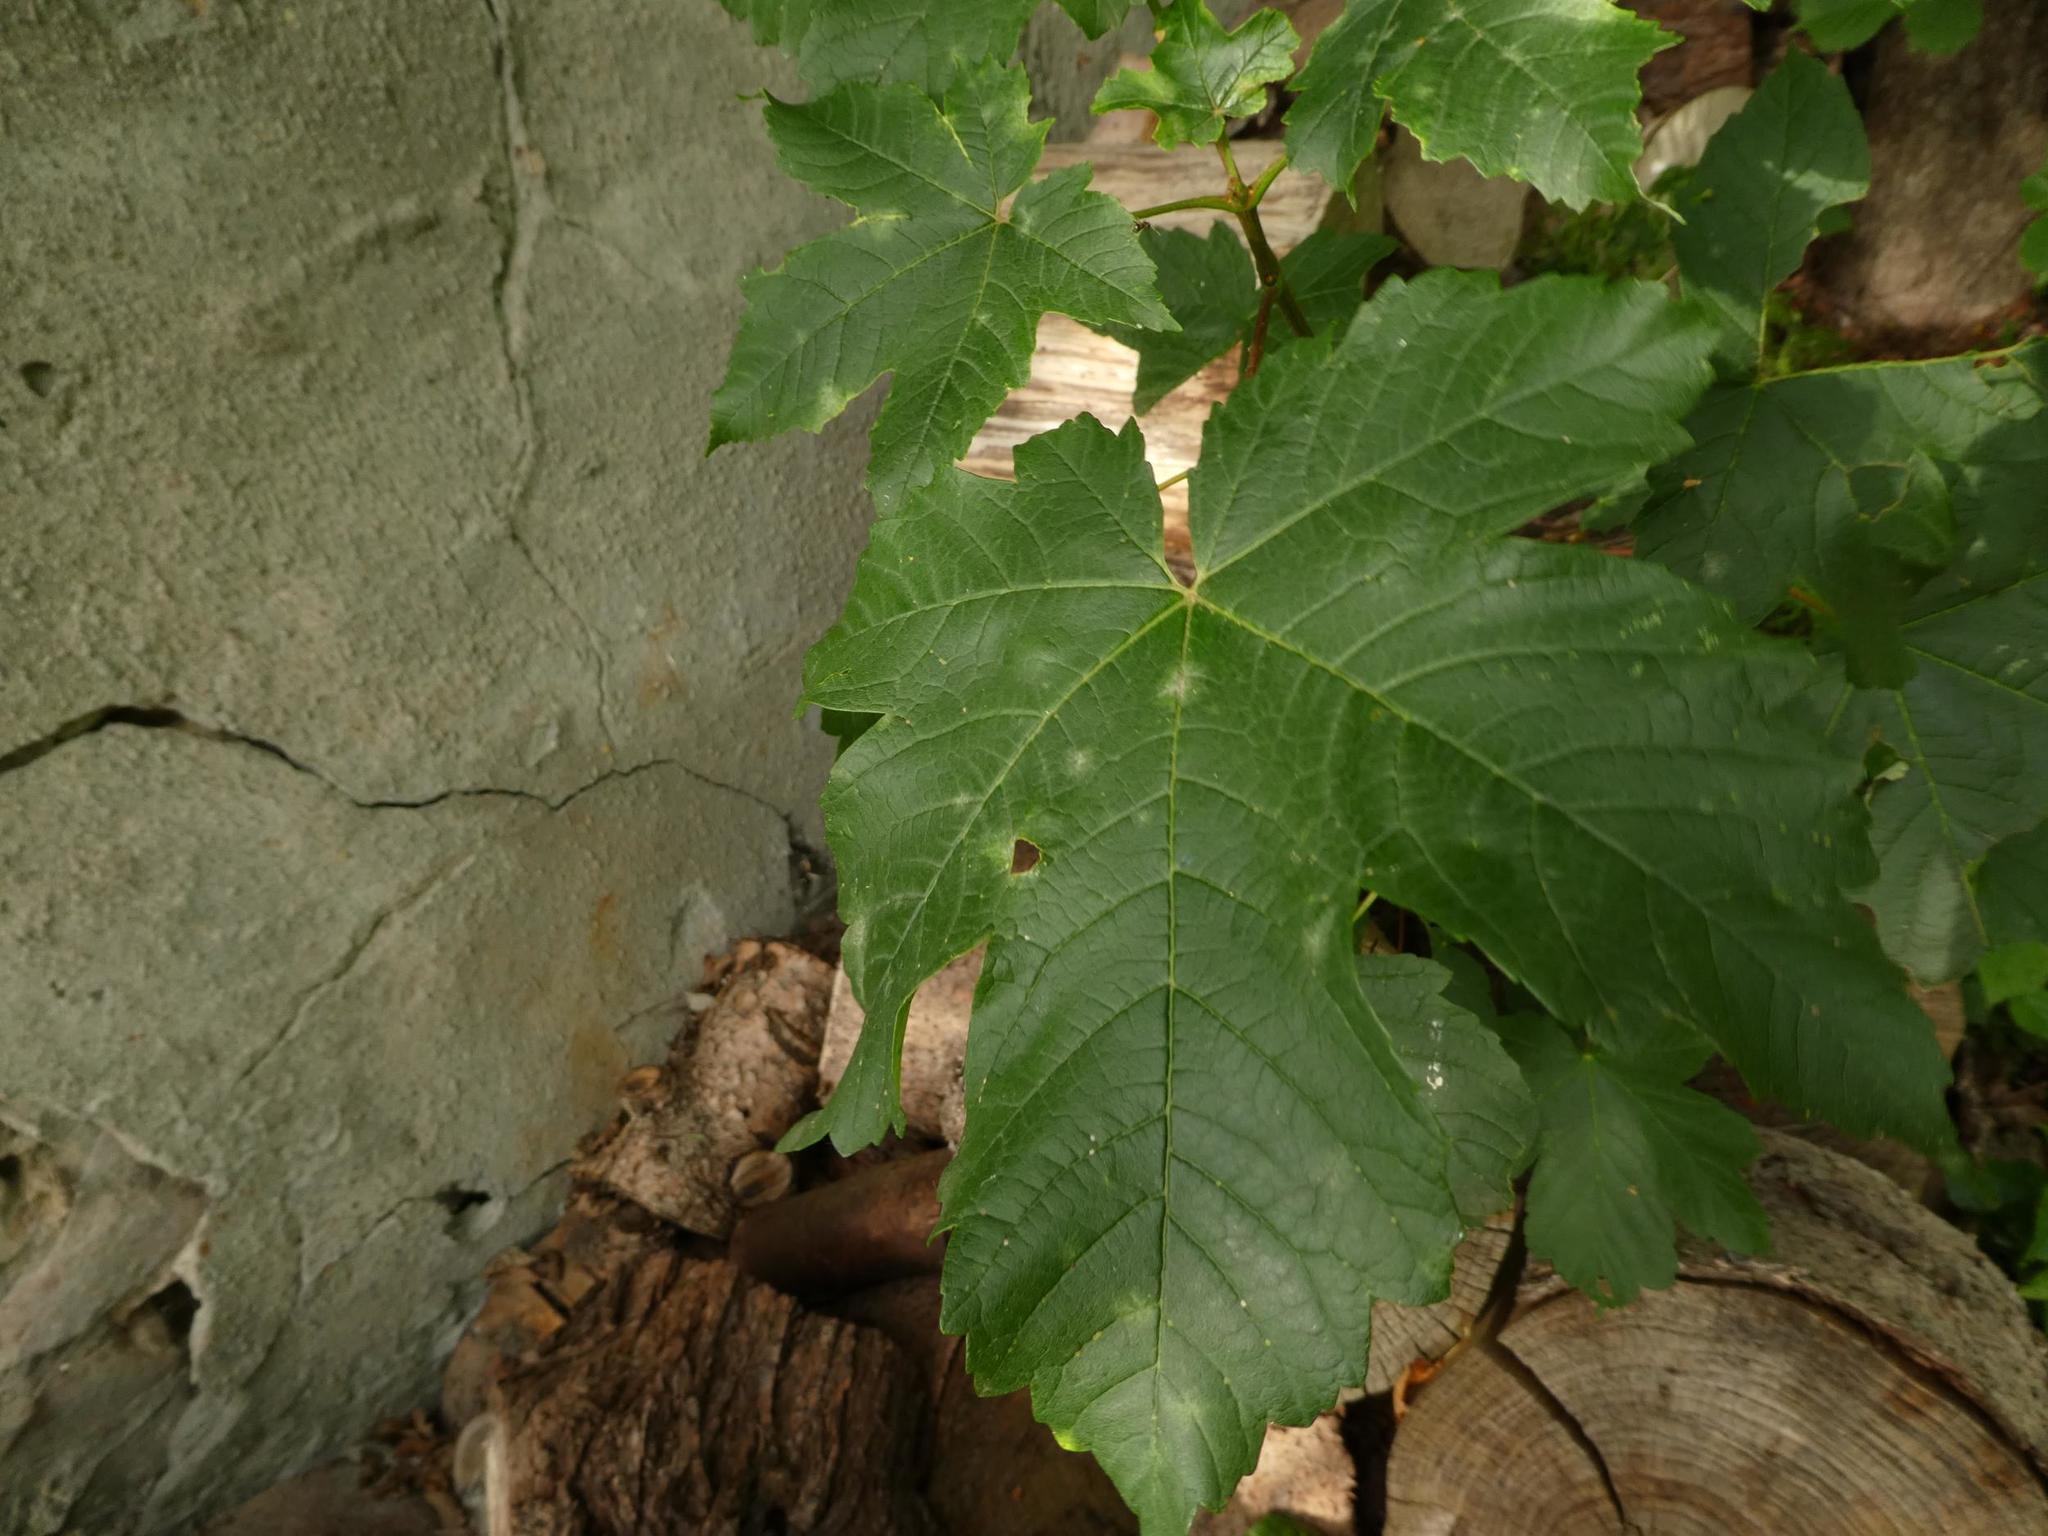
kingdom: Plantae
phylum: Tracheophyta
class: Magnoliopsida
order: Sapindales
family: Sapindaceae
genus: Acer
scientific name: Acer pseudoplatanus
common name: Sycamore
